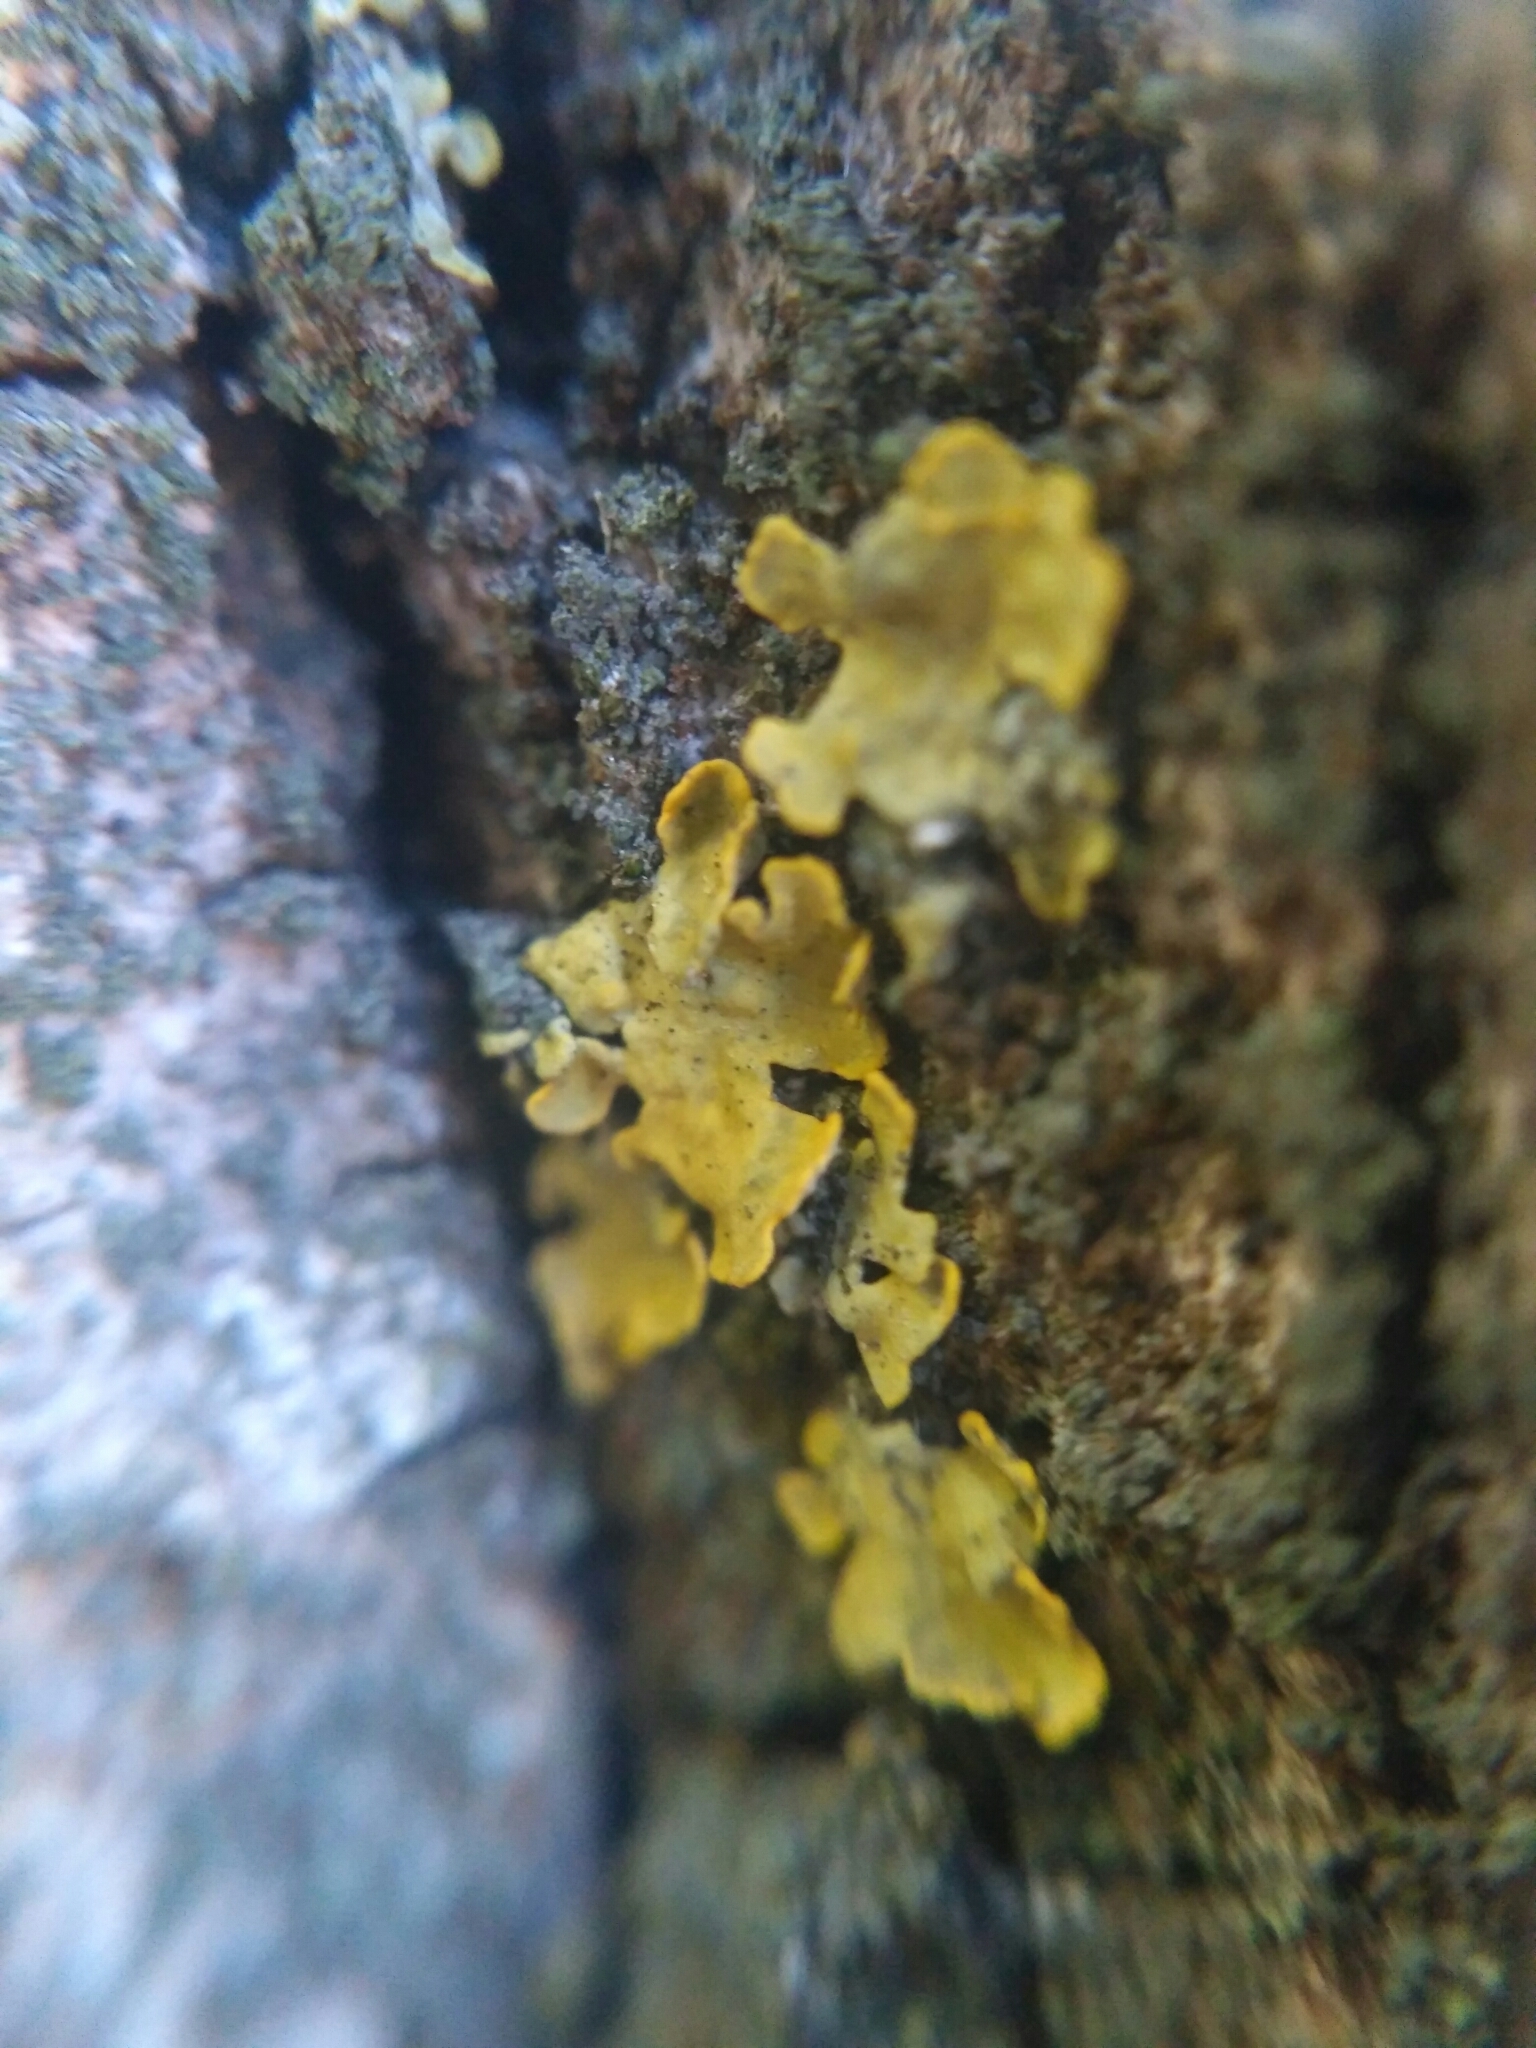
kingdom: Fungi
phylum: Ascomycota
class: Lecanoromycetes
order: Teloschistales
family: Teloschistaceae
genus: Xanthoria
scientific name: Xanthoria parietina
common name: Common orange lichen
